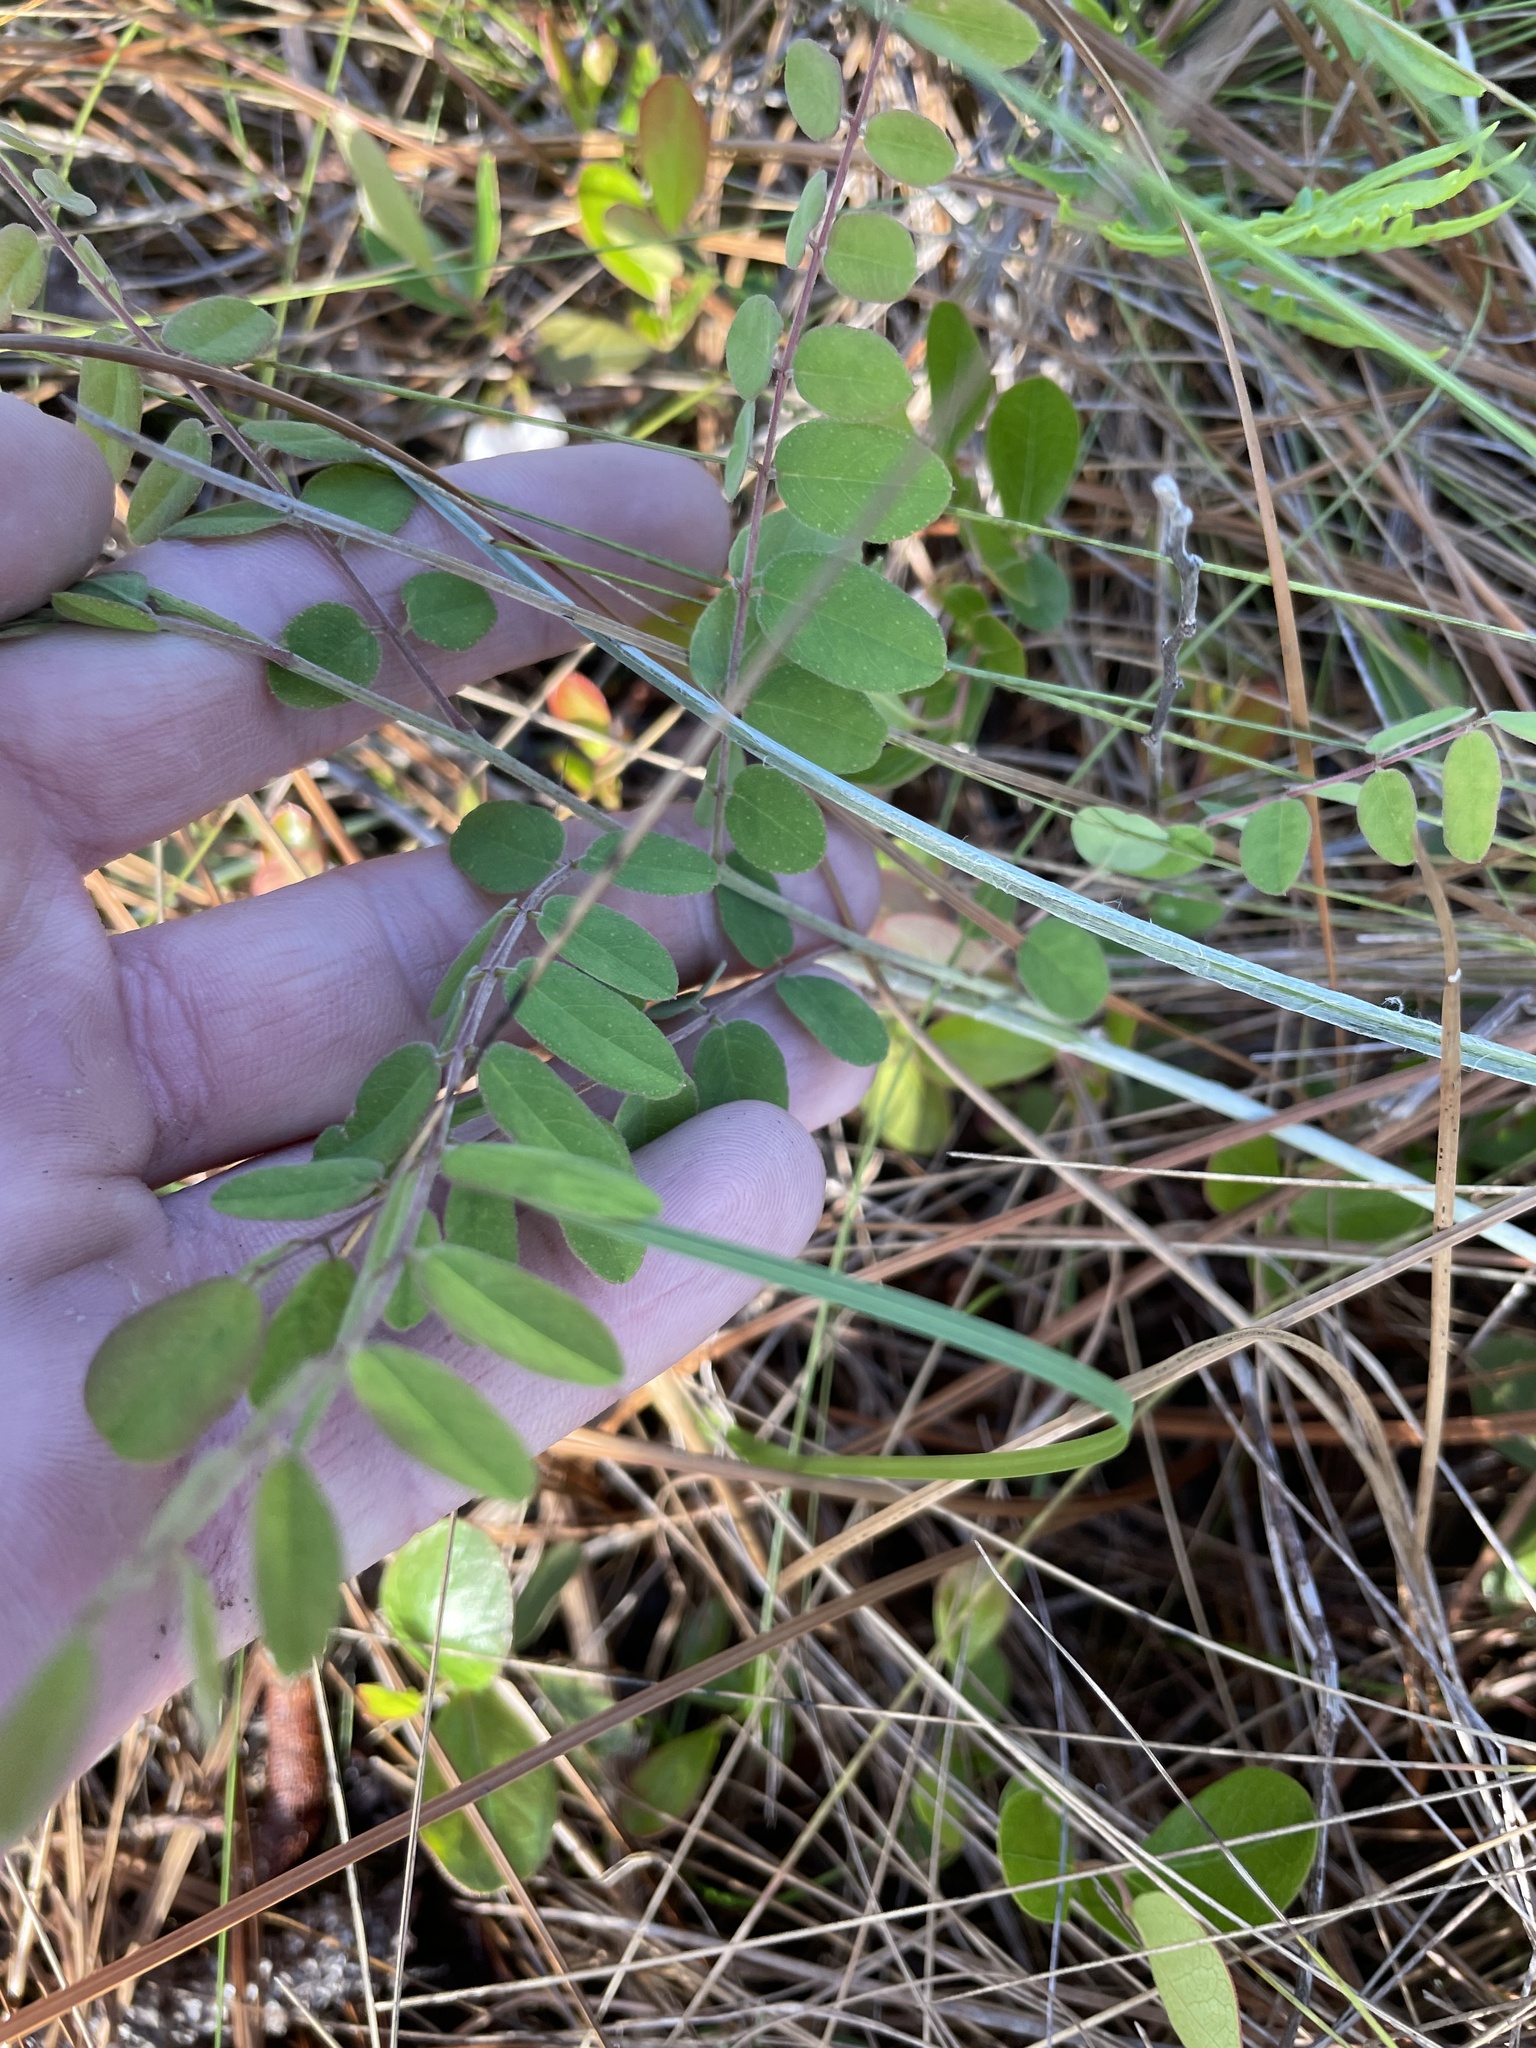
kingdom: Plantae
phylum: Tracheophyta
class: Magnoliopsida
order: Fabales
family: Fabaceae
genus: Amorpha
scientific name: Amorpha herbacea
